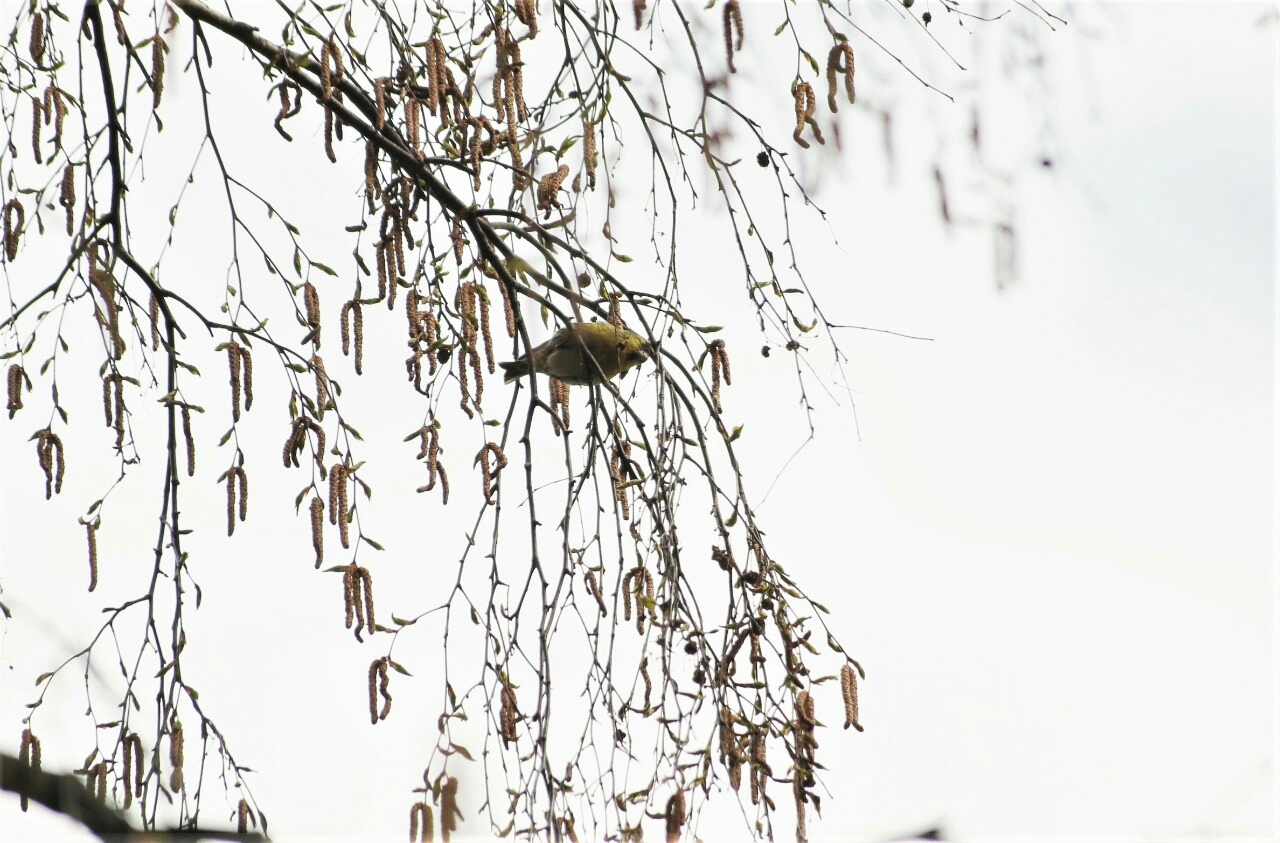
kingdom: Animalia
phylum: Chordata
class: Aves
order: Passeriformes
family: Fringillidae
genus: Spinus
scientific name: Spinus spinus
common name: Eurasian siskin
